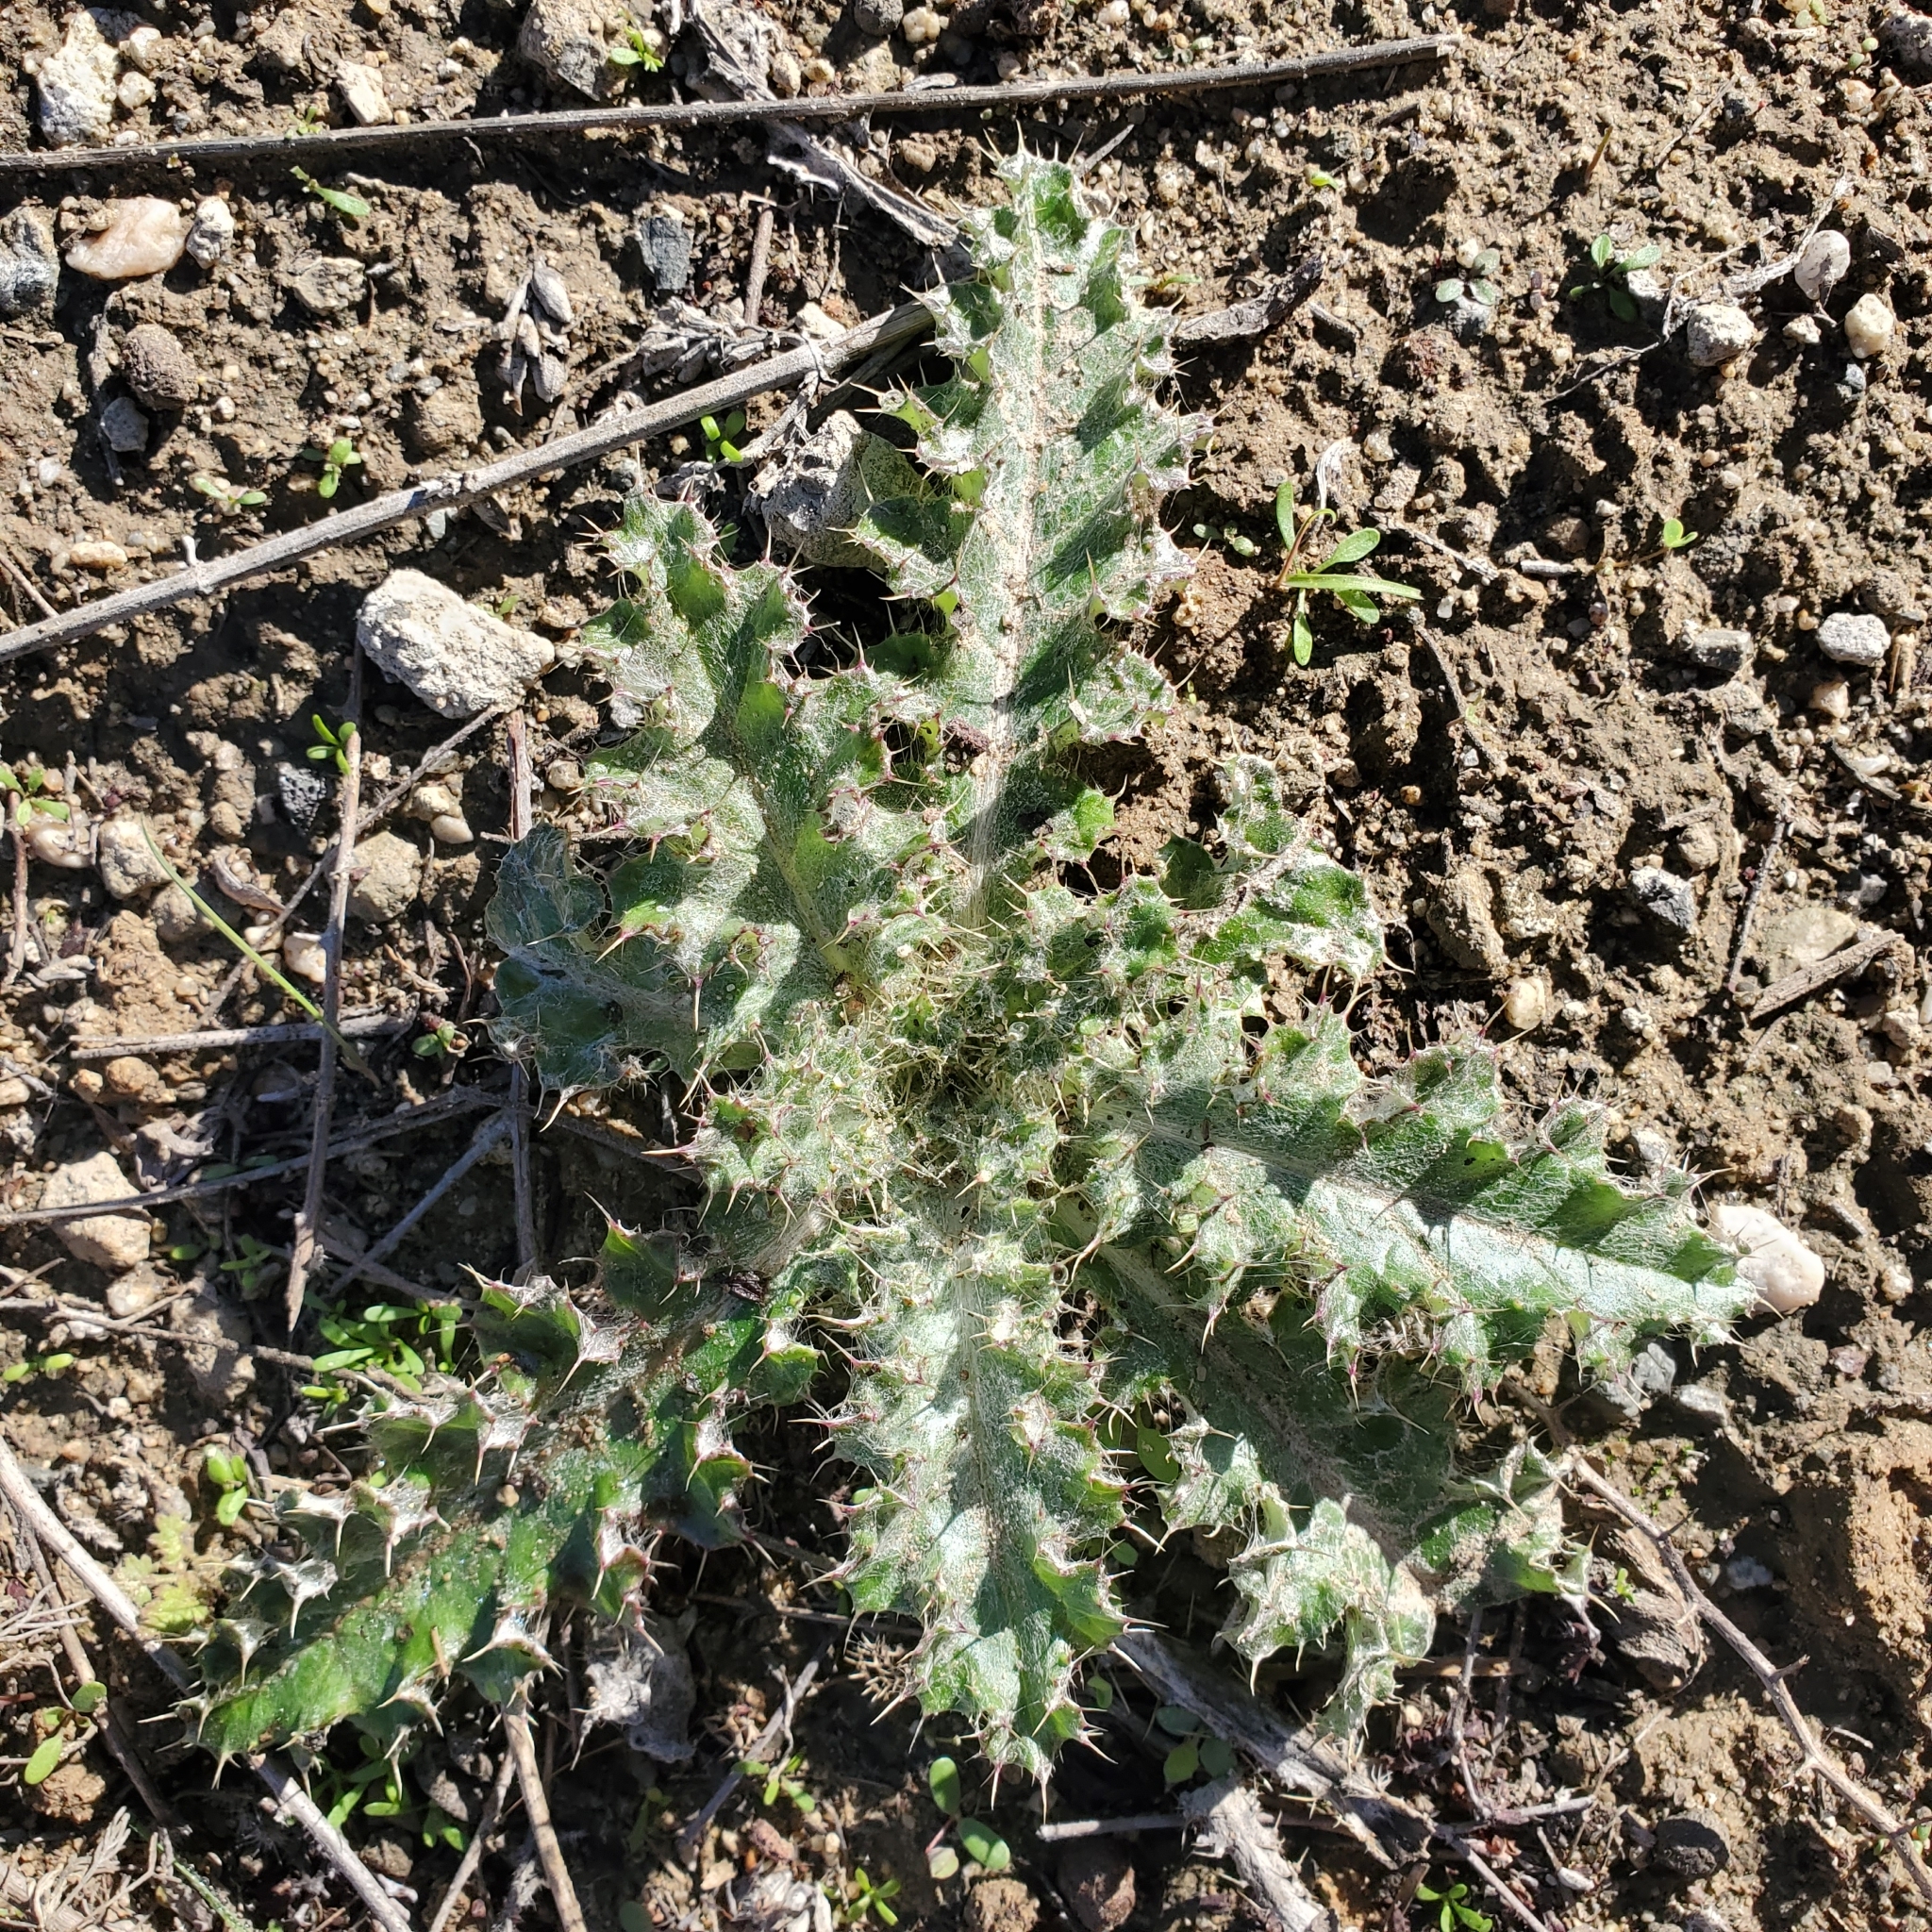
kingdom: Plantae
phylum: Tracheophyta
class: Magnoliopsida
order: Asterales
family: Asteraceae
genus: Cirsium
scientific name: Cirsium occidentale
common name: Western thistle
